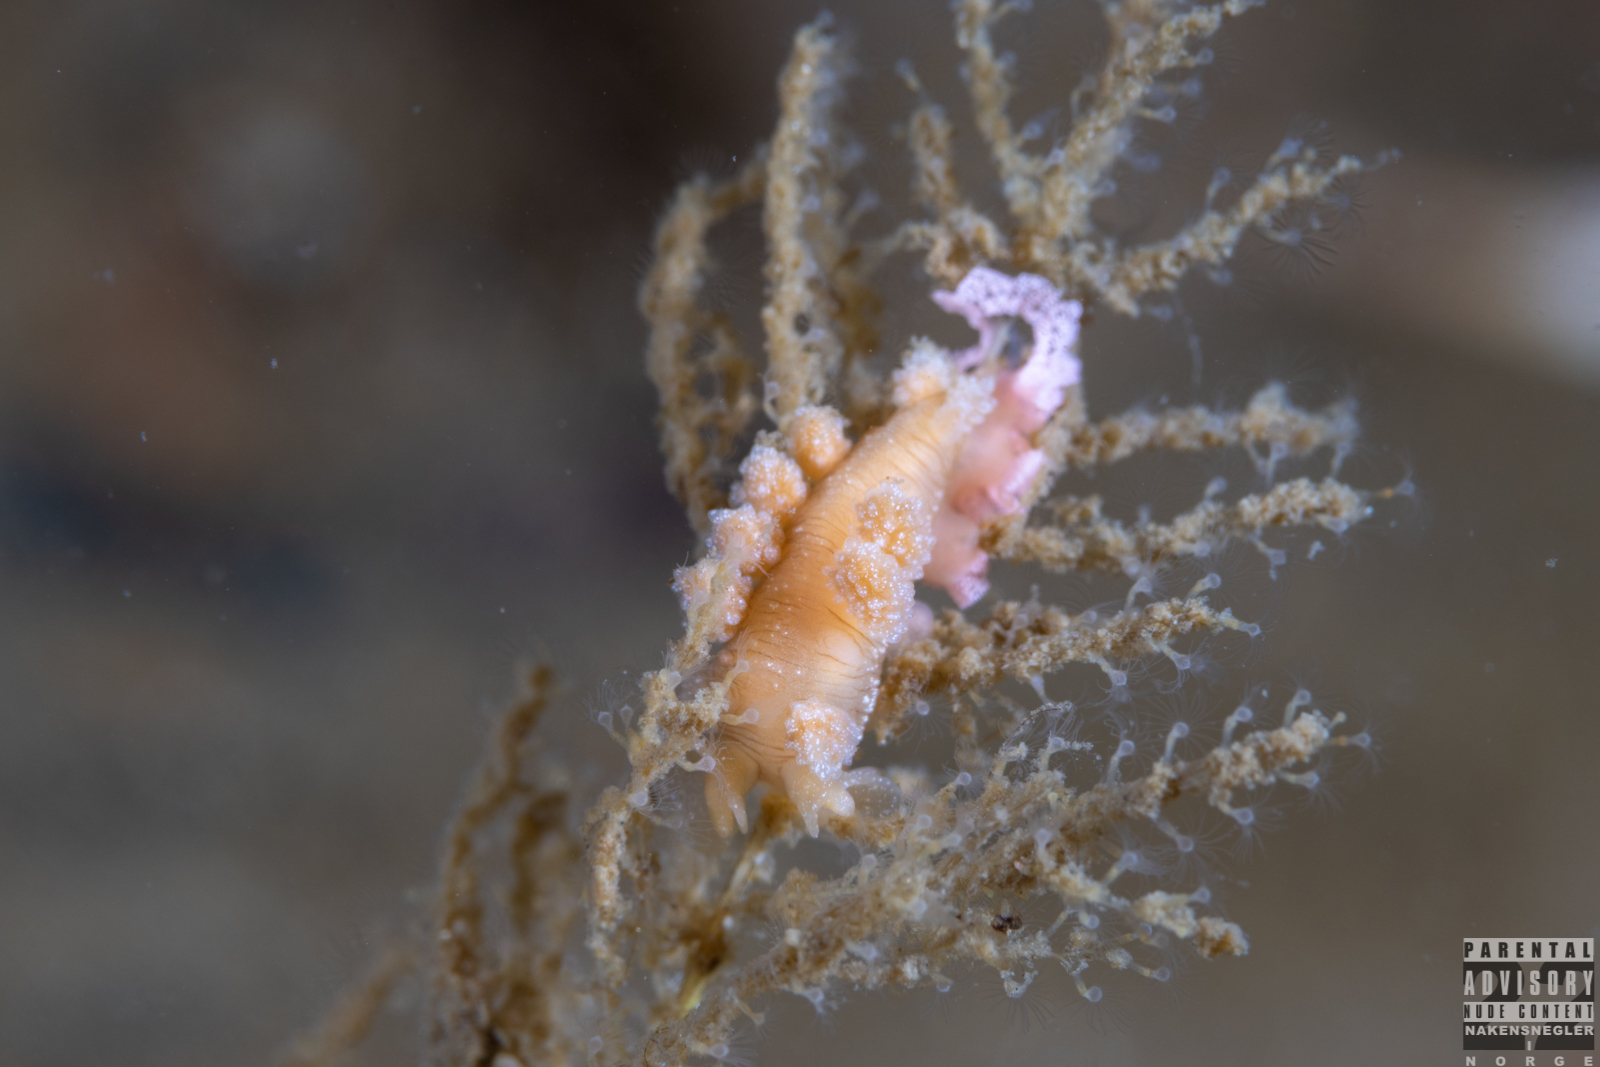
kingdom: Animalia
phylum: Mollusca
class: Gastropoda
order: Nudibranchia
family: Dotidae
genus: Doto
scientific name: Doto fragilis
